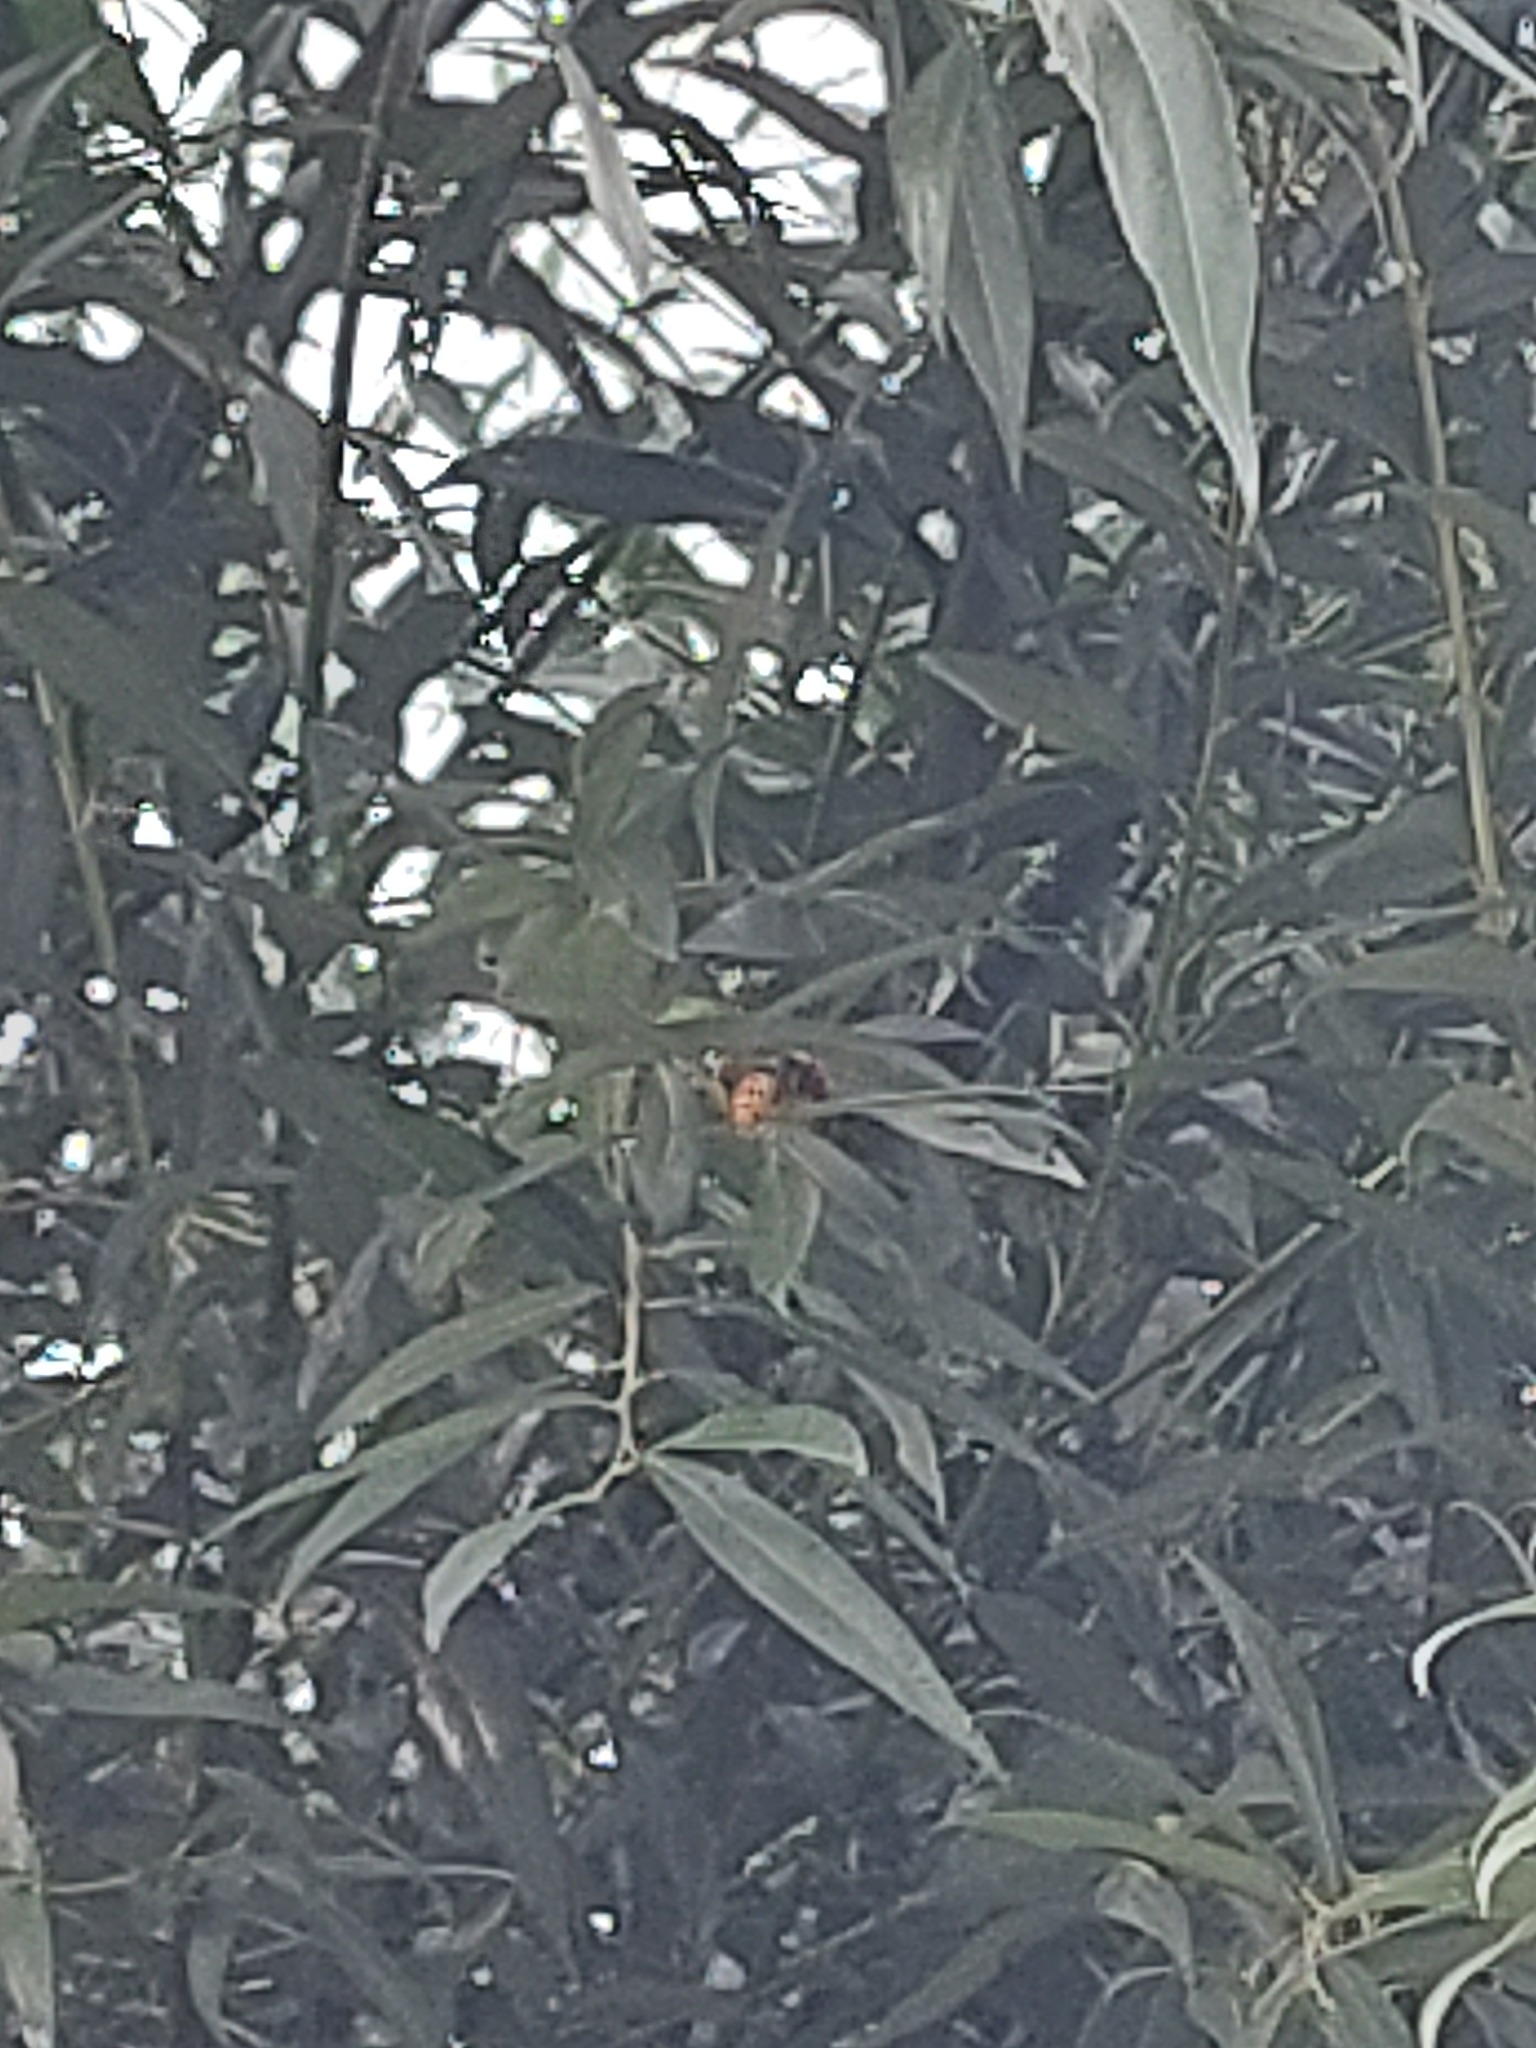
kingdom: Animalia
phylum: Arthropoda
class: Insecta
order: Hymenoptera
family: Vespidae
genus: Vespa
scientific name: Vespa crabro
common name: Hornet
